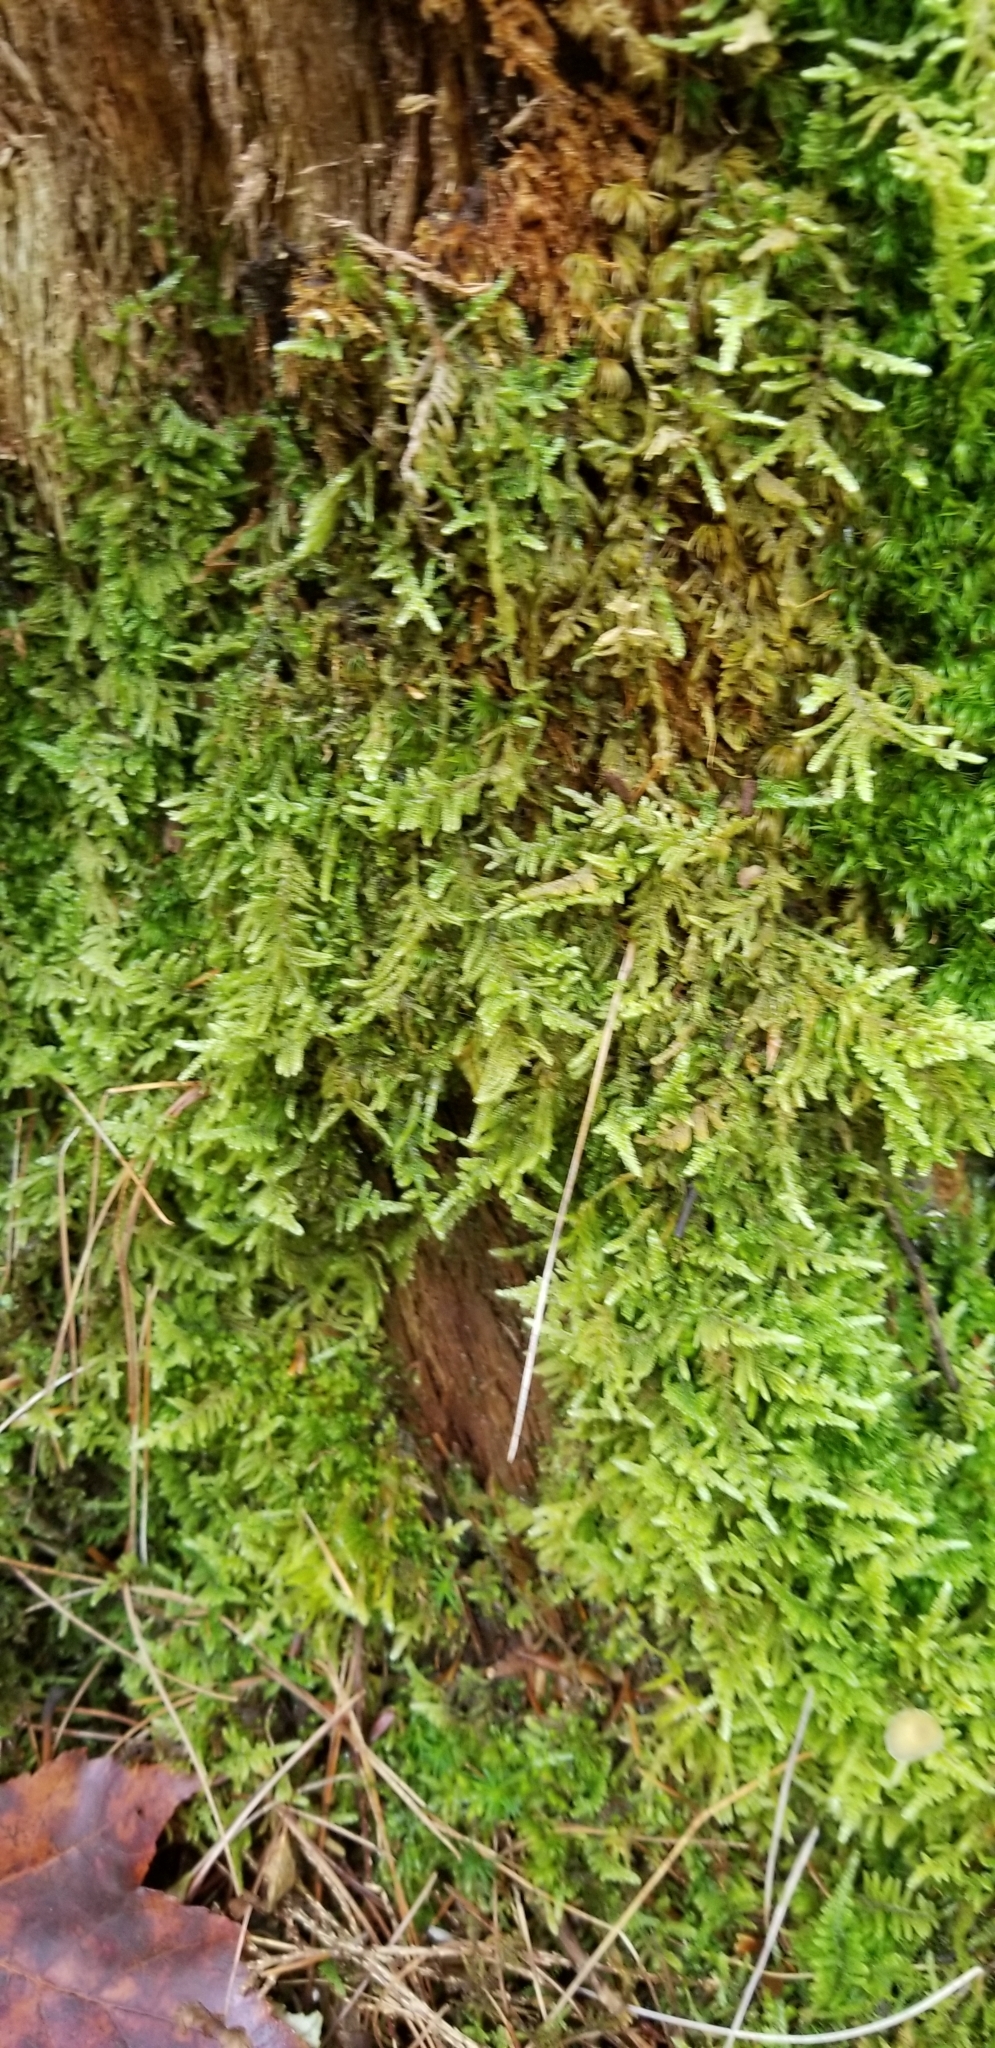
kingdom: Plantae
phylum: Bryophyta
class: Bryopsida
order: Hypnales
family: Callicladiaceae
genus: Callicladium
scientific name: Callicladium imponens
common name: Brocade moss
